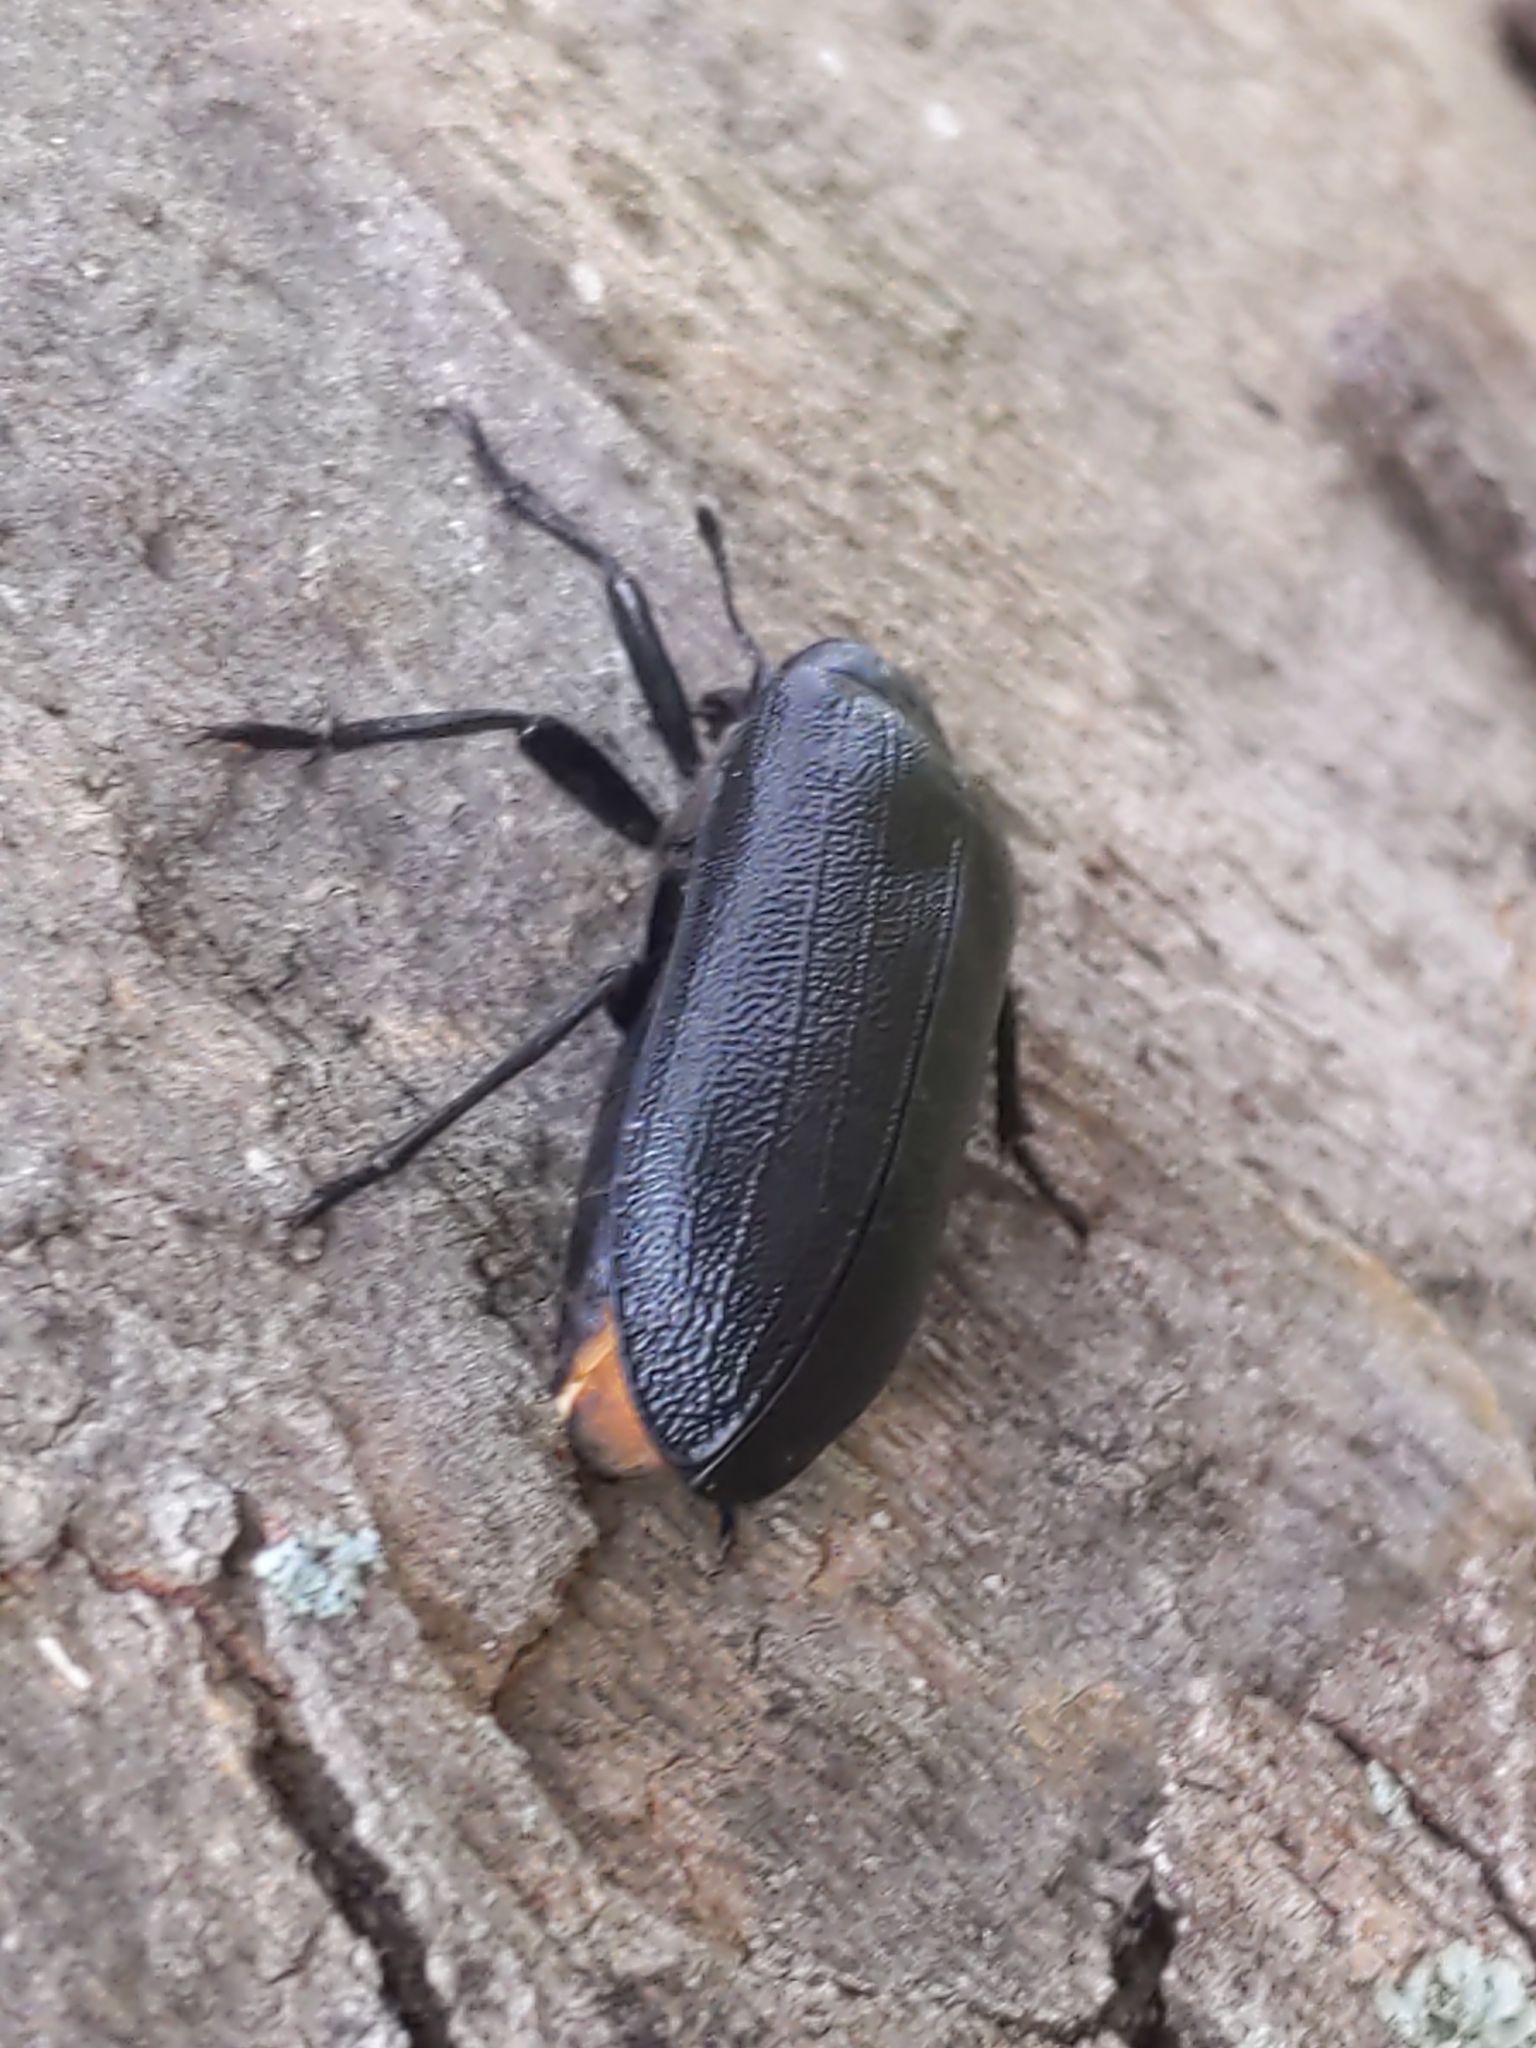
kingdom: Animalia
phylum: Arthropoda
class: Insecta
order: Coleoptera
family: Rhipiceridae
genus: Sandalus
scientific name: Sandalus niger
